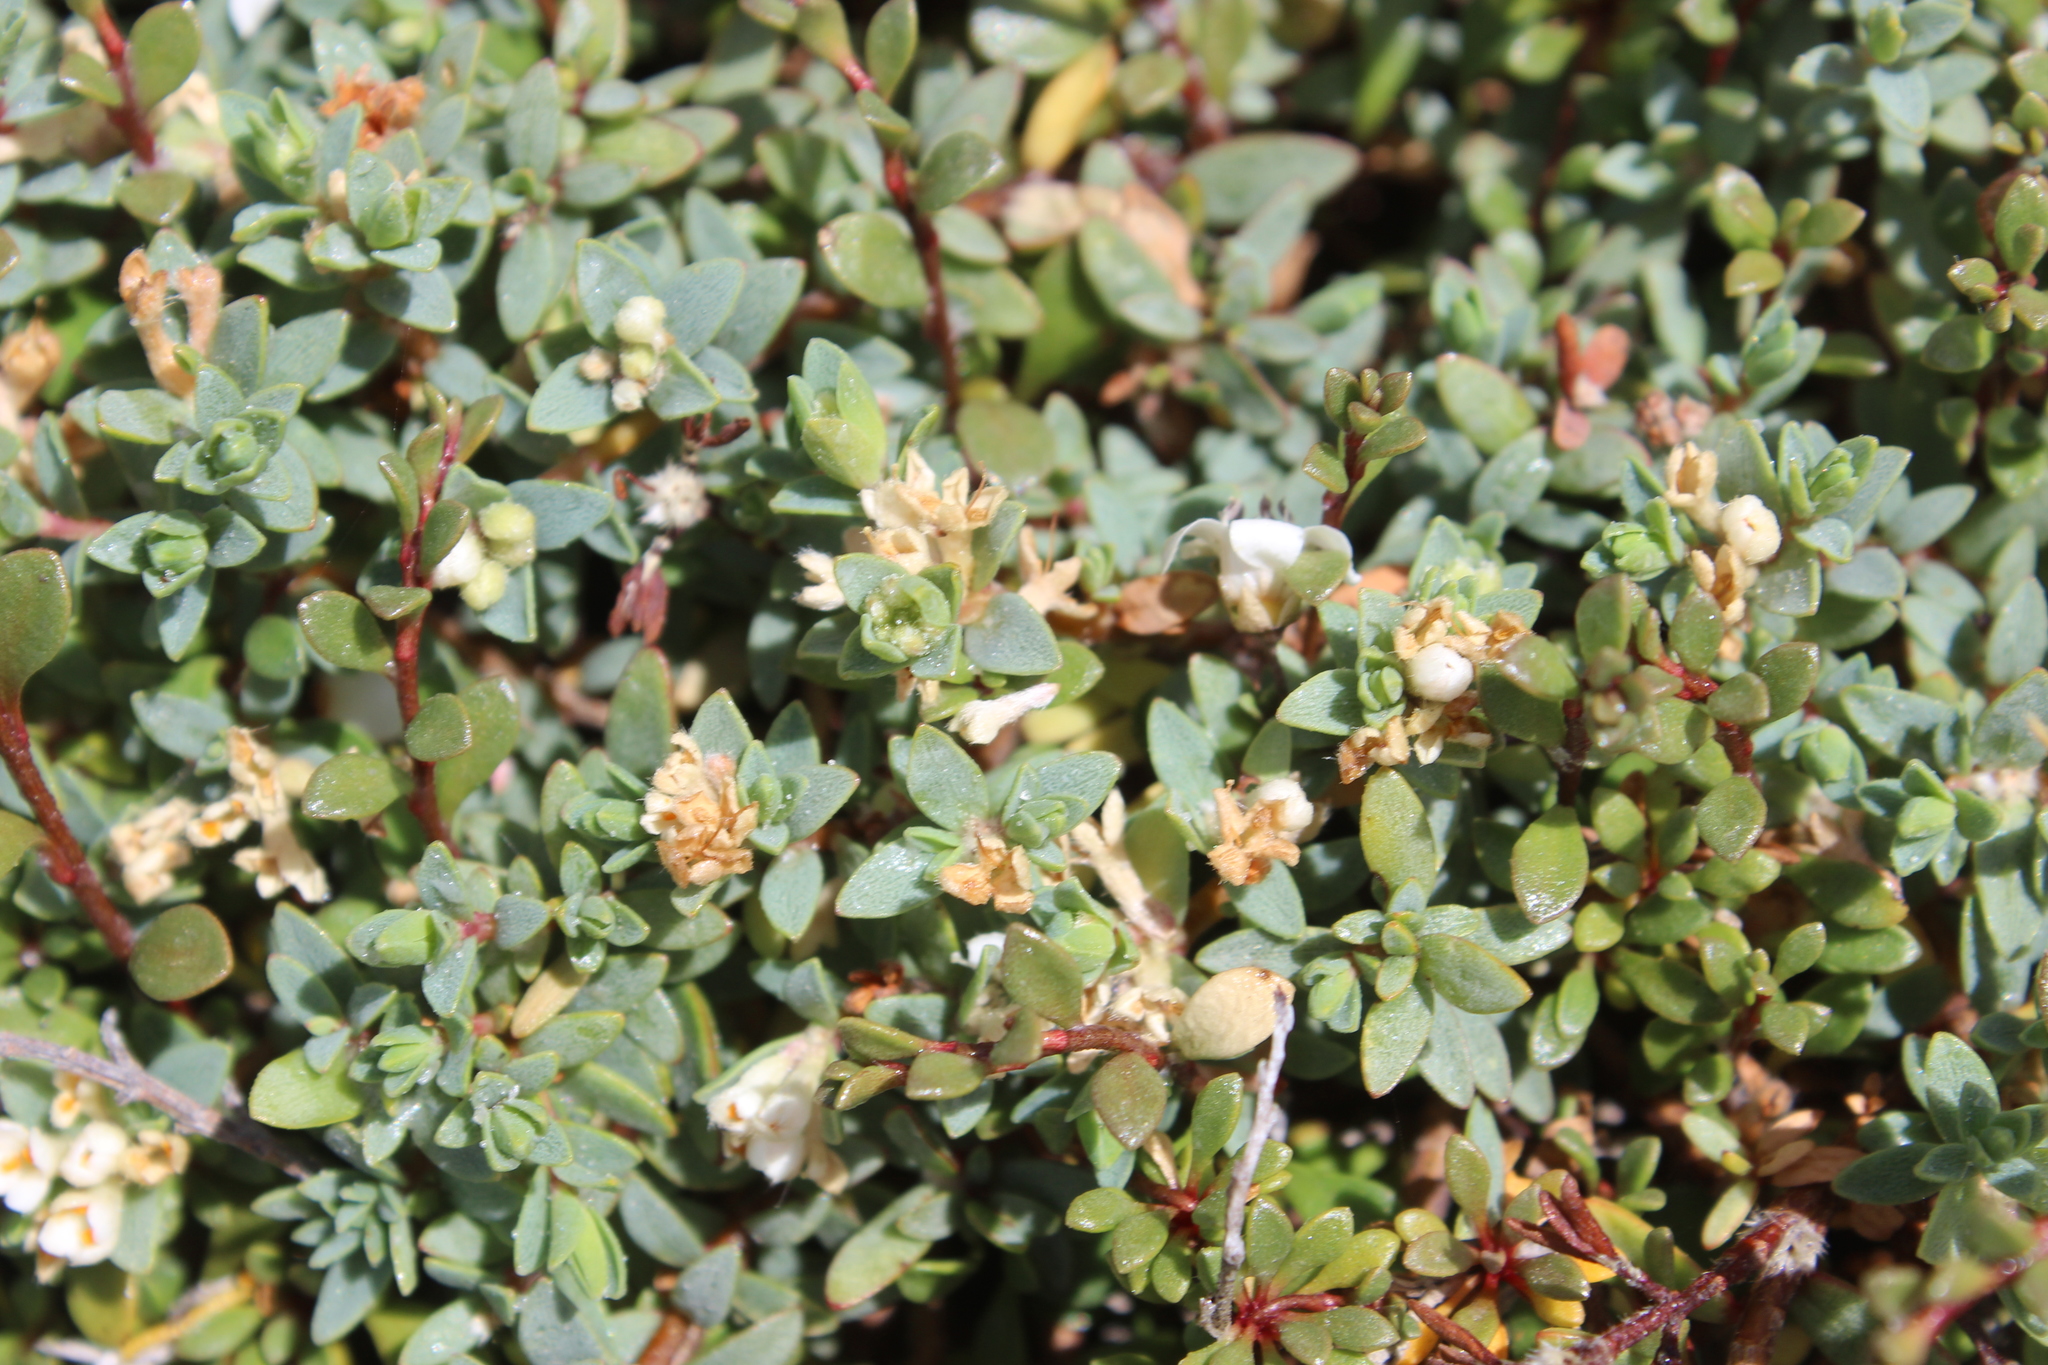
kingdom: Plantae
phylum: Tracheophyta
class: Magnoliopsida
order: Malvales
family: Thymelaeaceae
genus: Pimelea
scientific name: Pimelea prostrata
